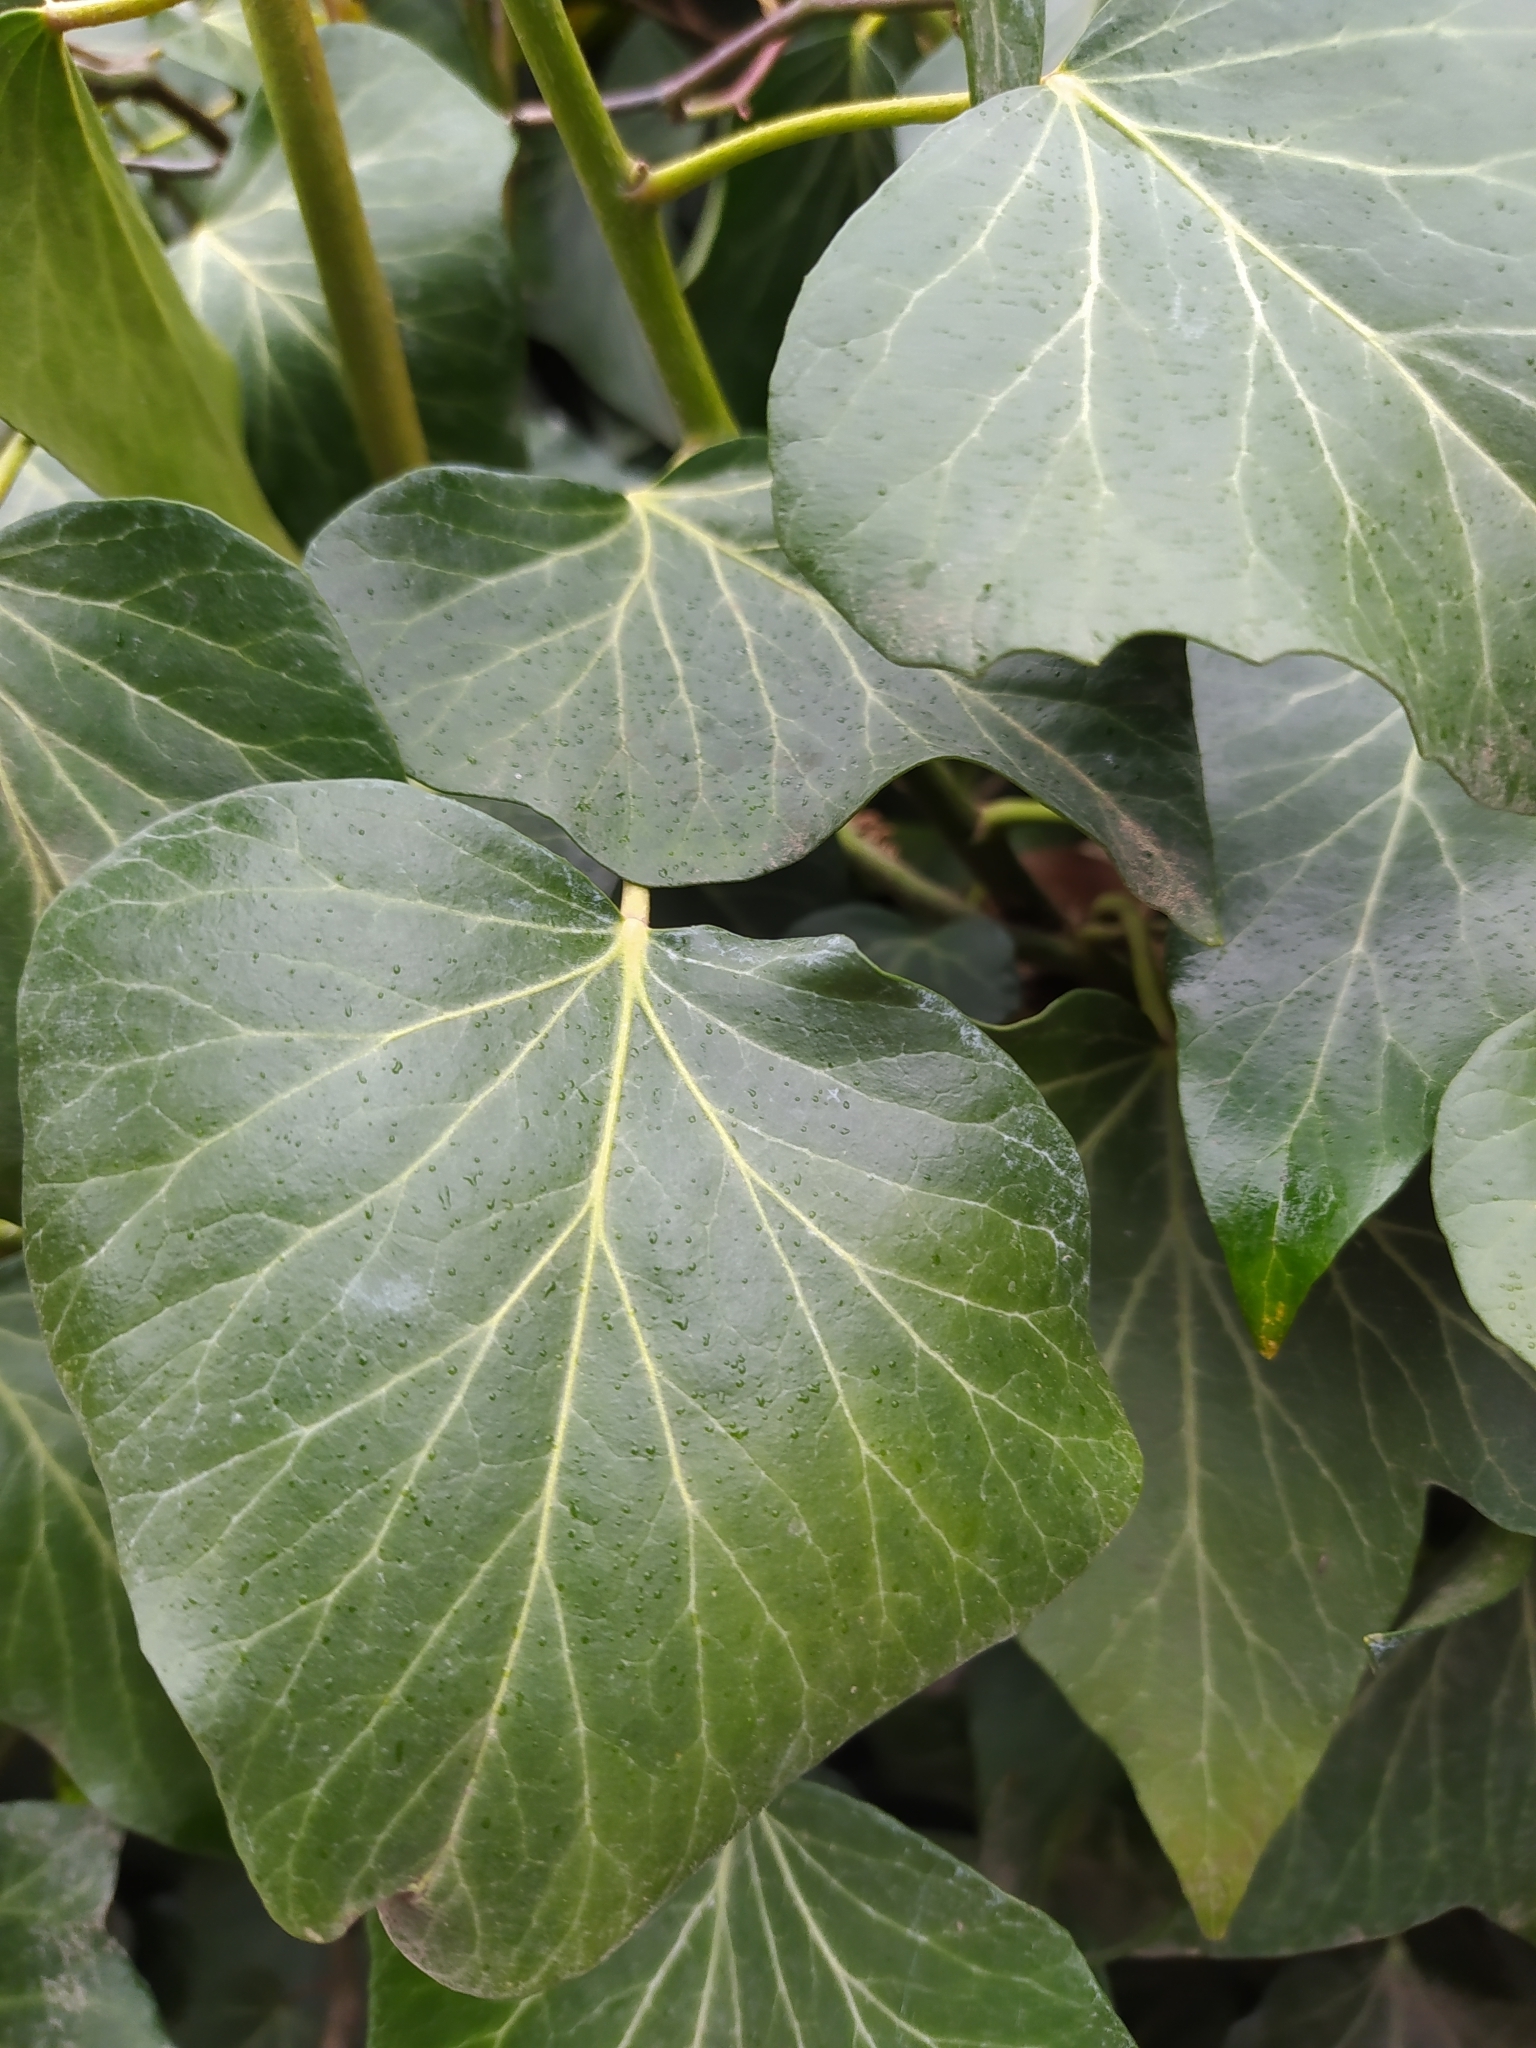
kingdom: Plantae
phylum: Tracheophyta
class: Magnoliopsida
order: Apiales
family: Araliaceae
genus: Hedera
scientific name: Hedera helix
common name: Ivy
